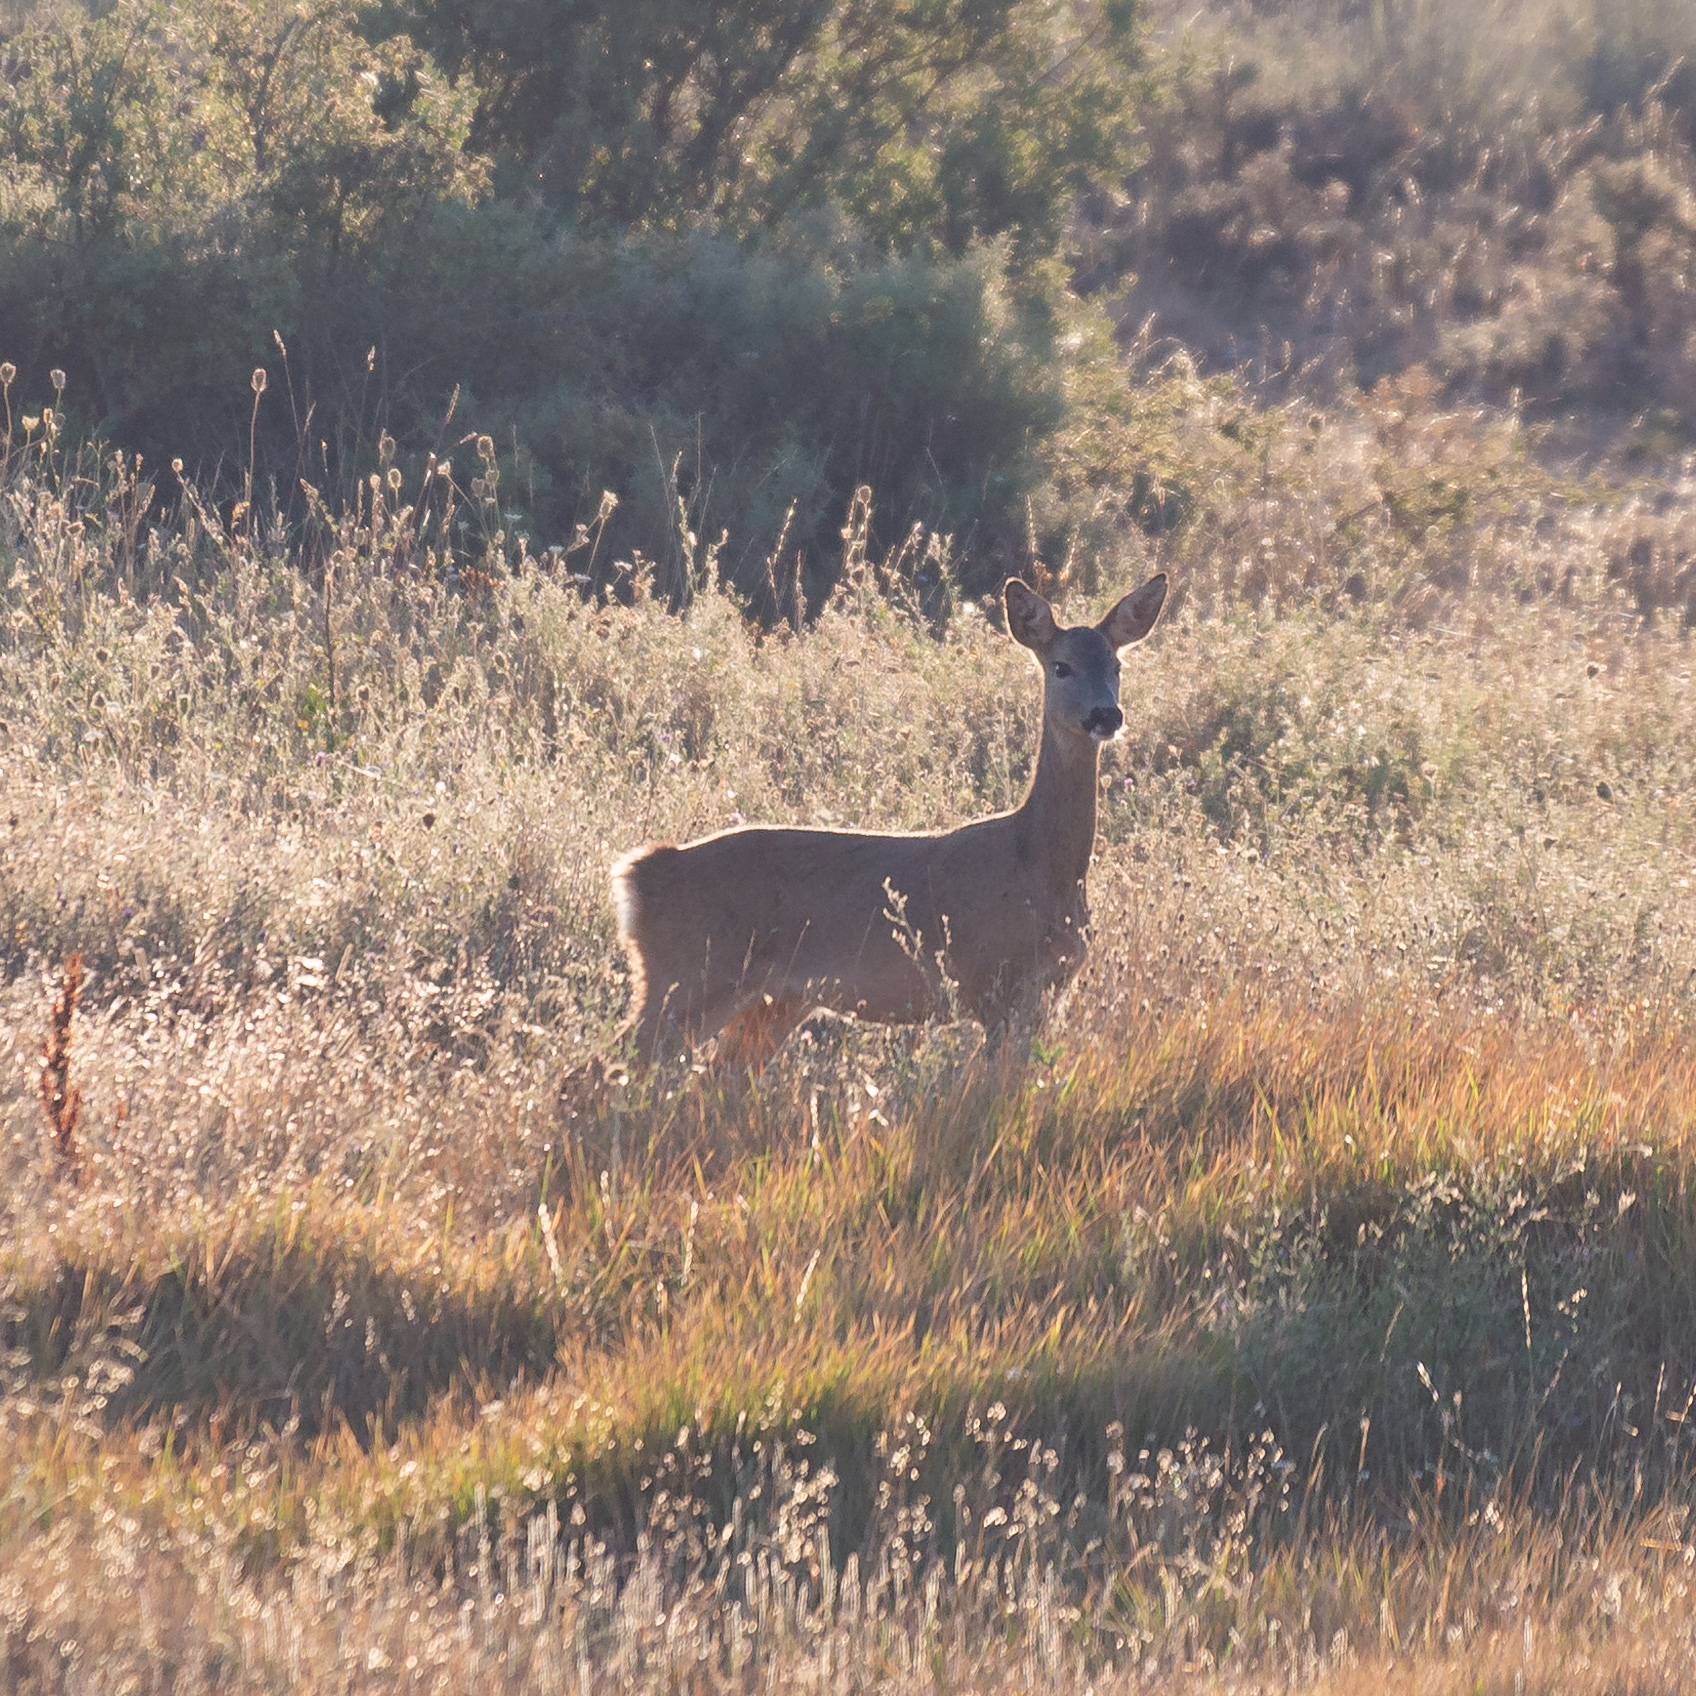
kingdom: Animalia
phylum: Chordata
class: Mammalia
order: Artiodactyla
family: Cervidae
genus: Capreolus
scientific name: Capreolus capreolus
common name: Western roe deer
